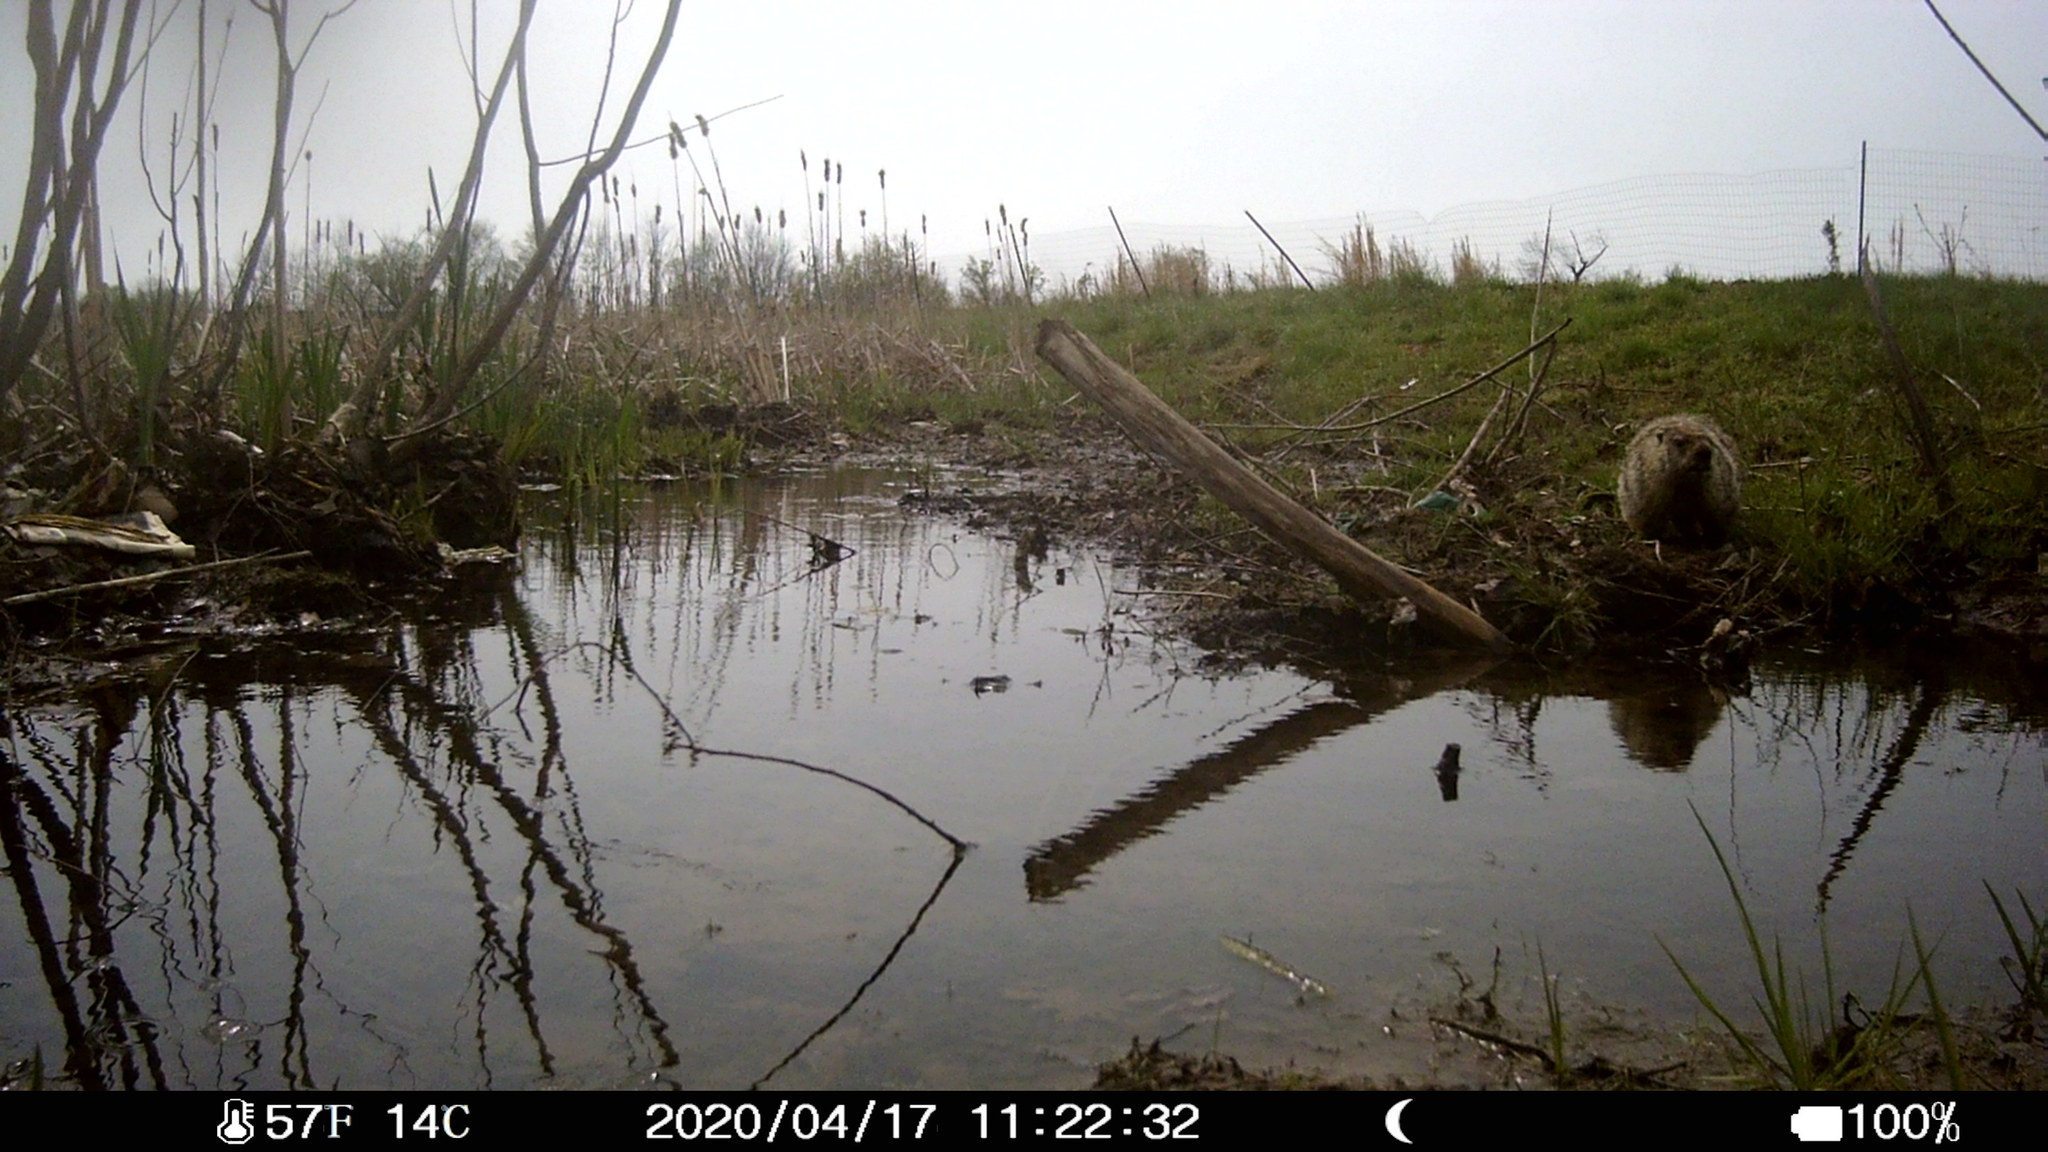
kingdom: Animalia
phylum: Chordata
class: Mammalia
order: Rodentia
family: Sciuridae
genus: Marmota
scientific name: Marmota monax
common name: Groundhog
